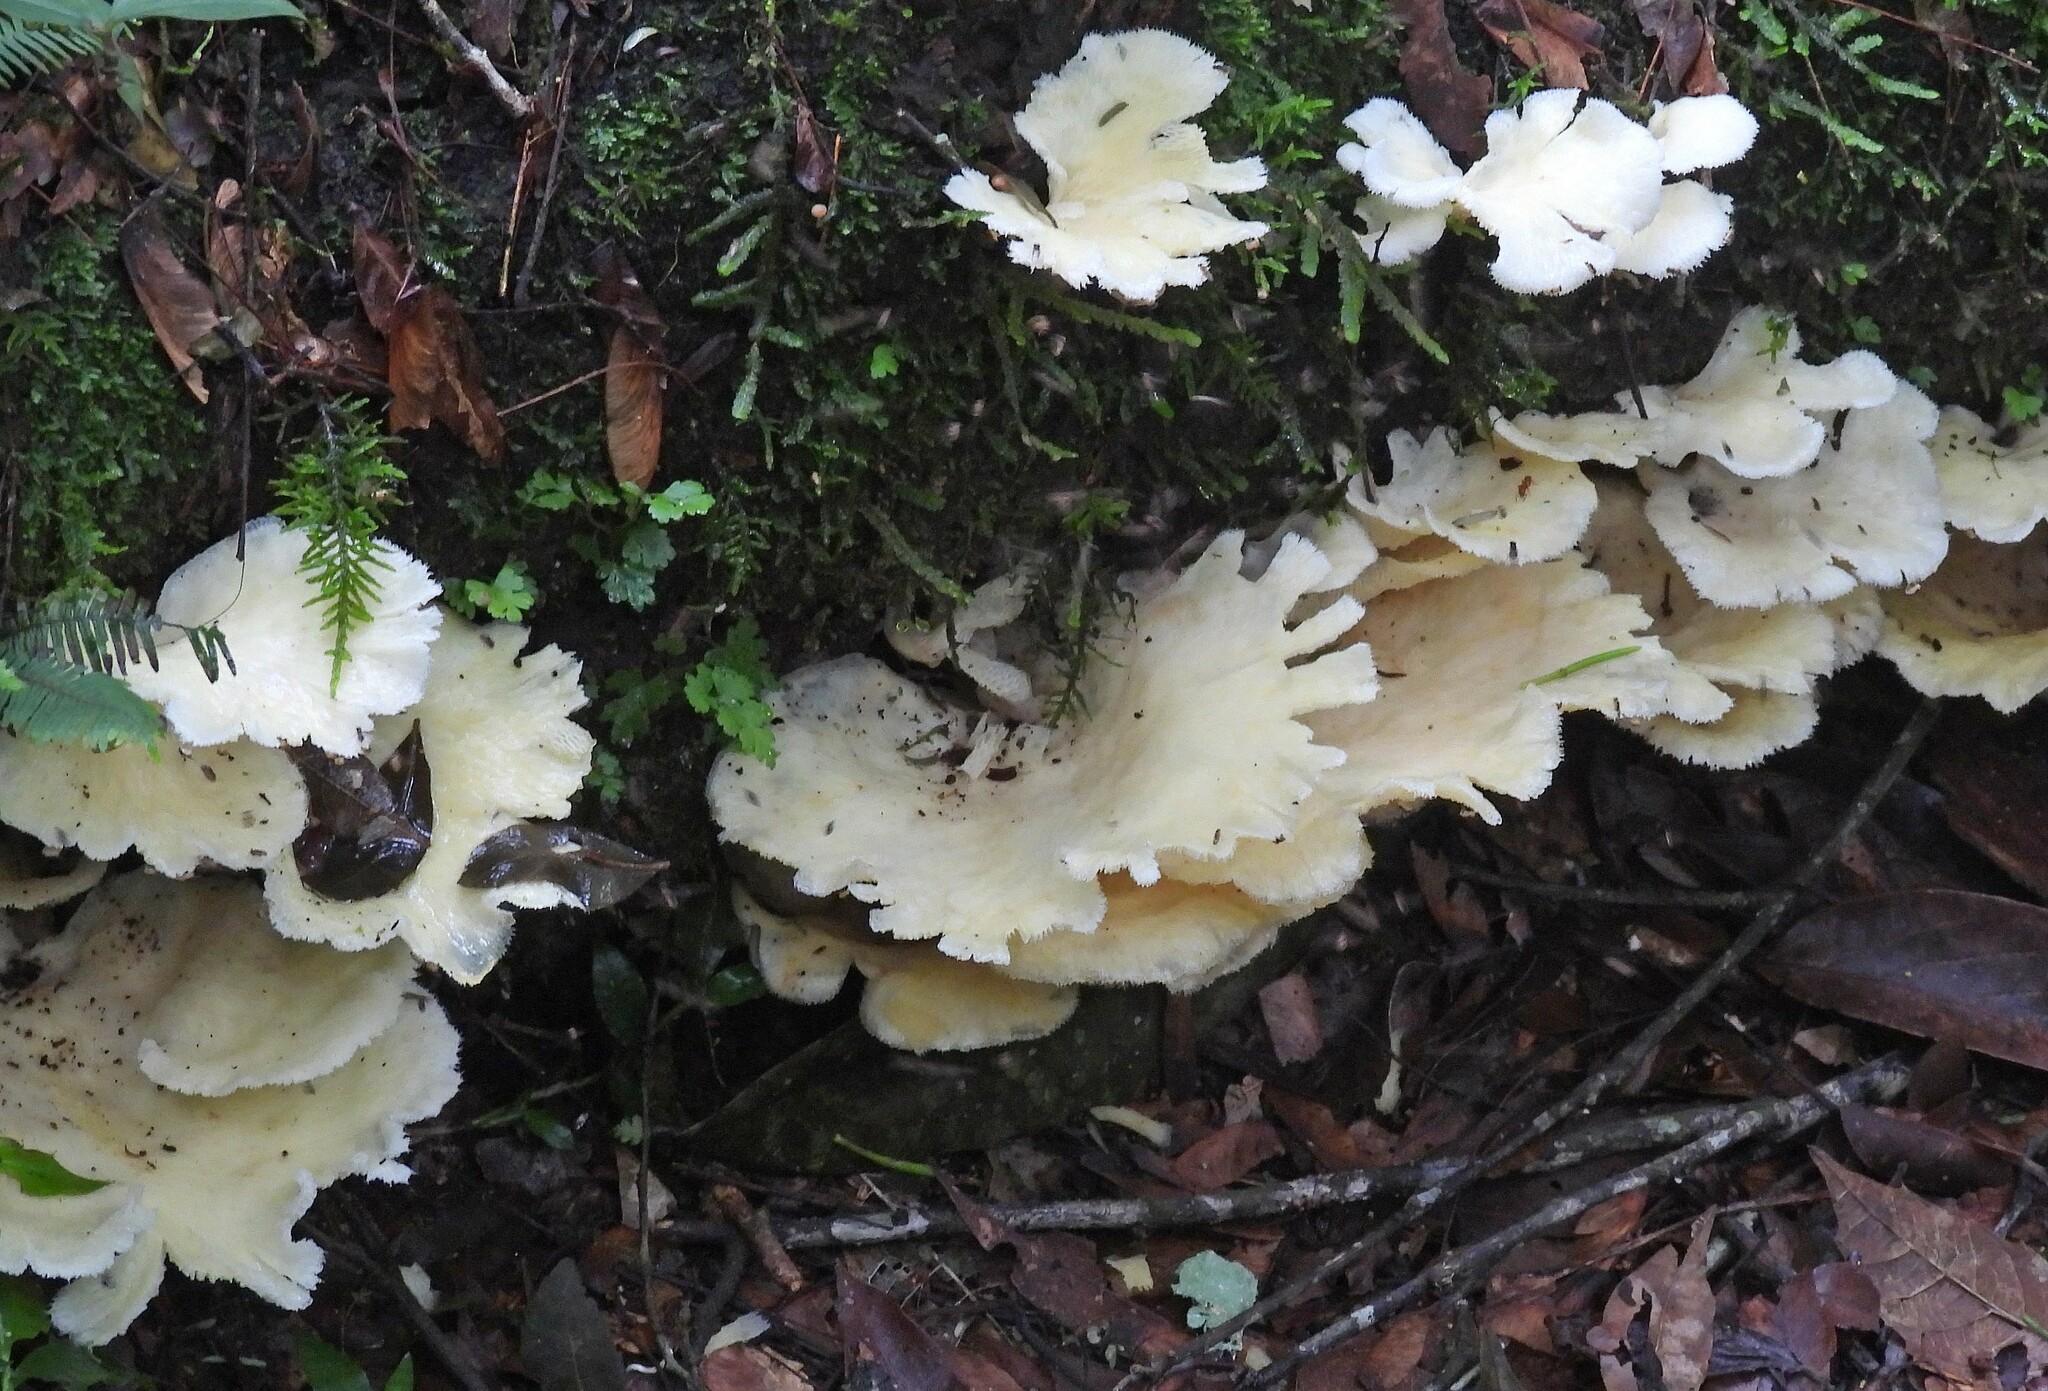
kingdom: Fungi
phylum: Basidiomycota
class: Agaricomycetes
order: Polyporales
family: Polyporaceae
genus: Favolus
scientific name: Favolus tenuiculus
